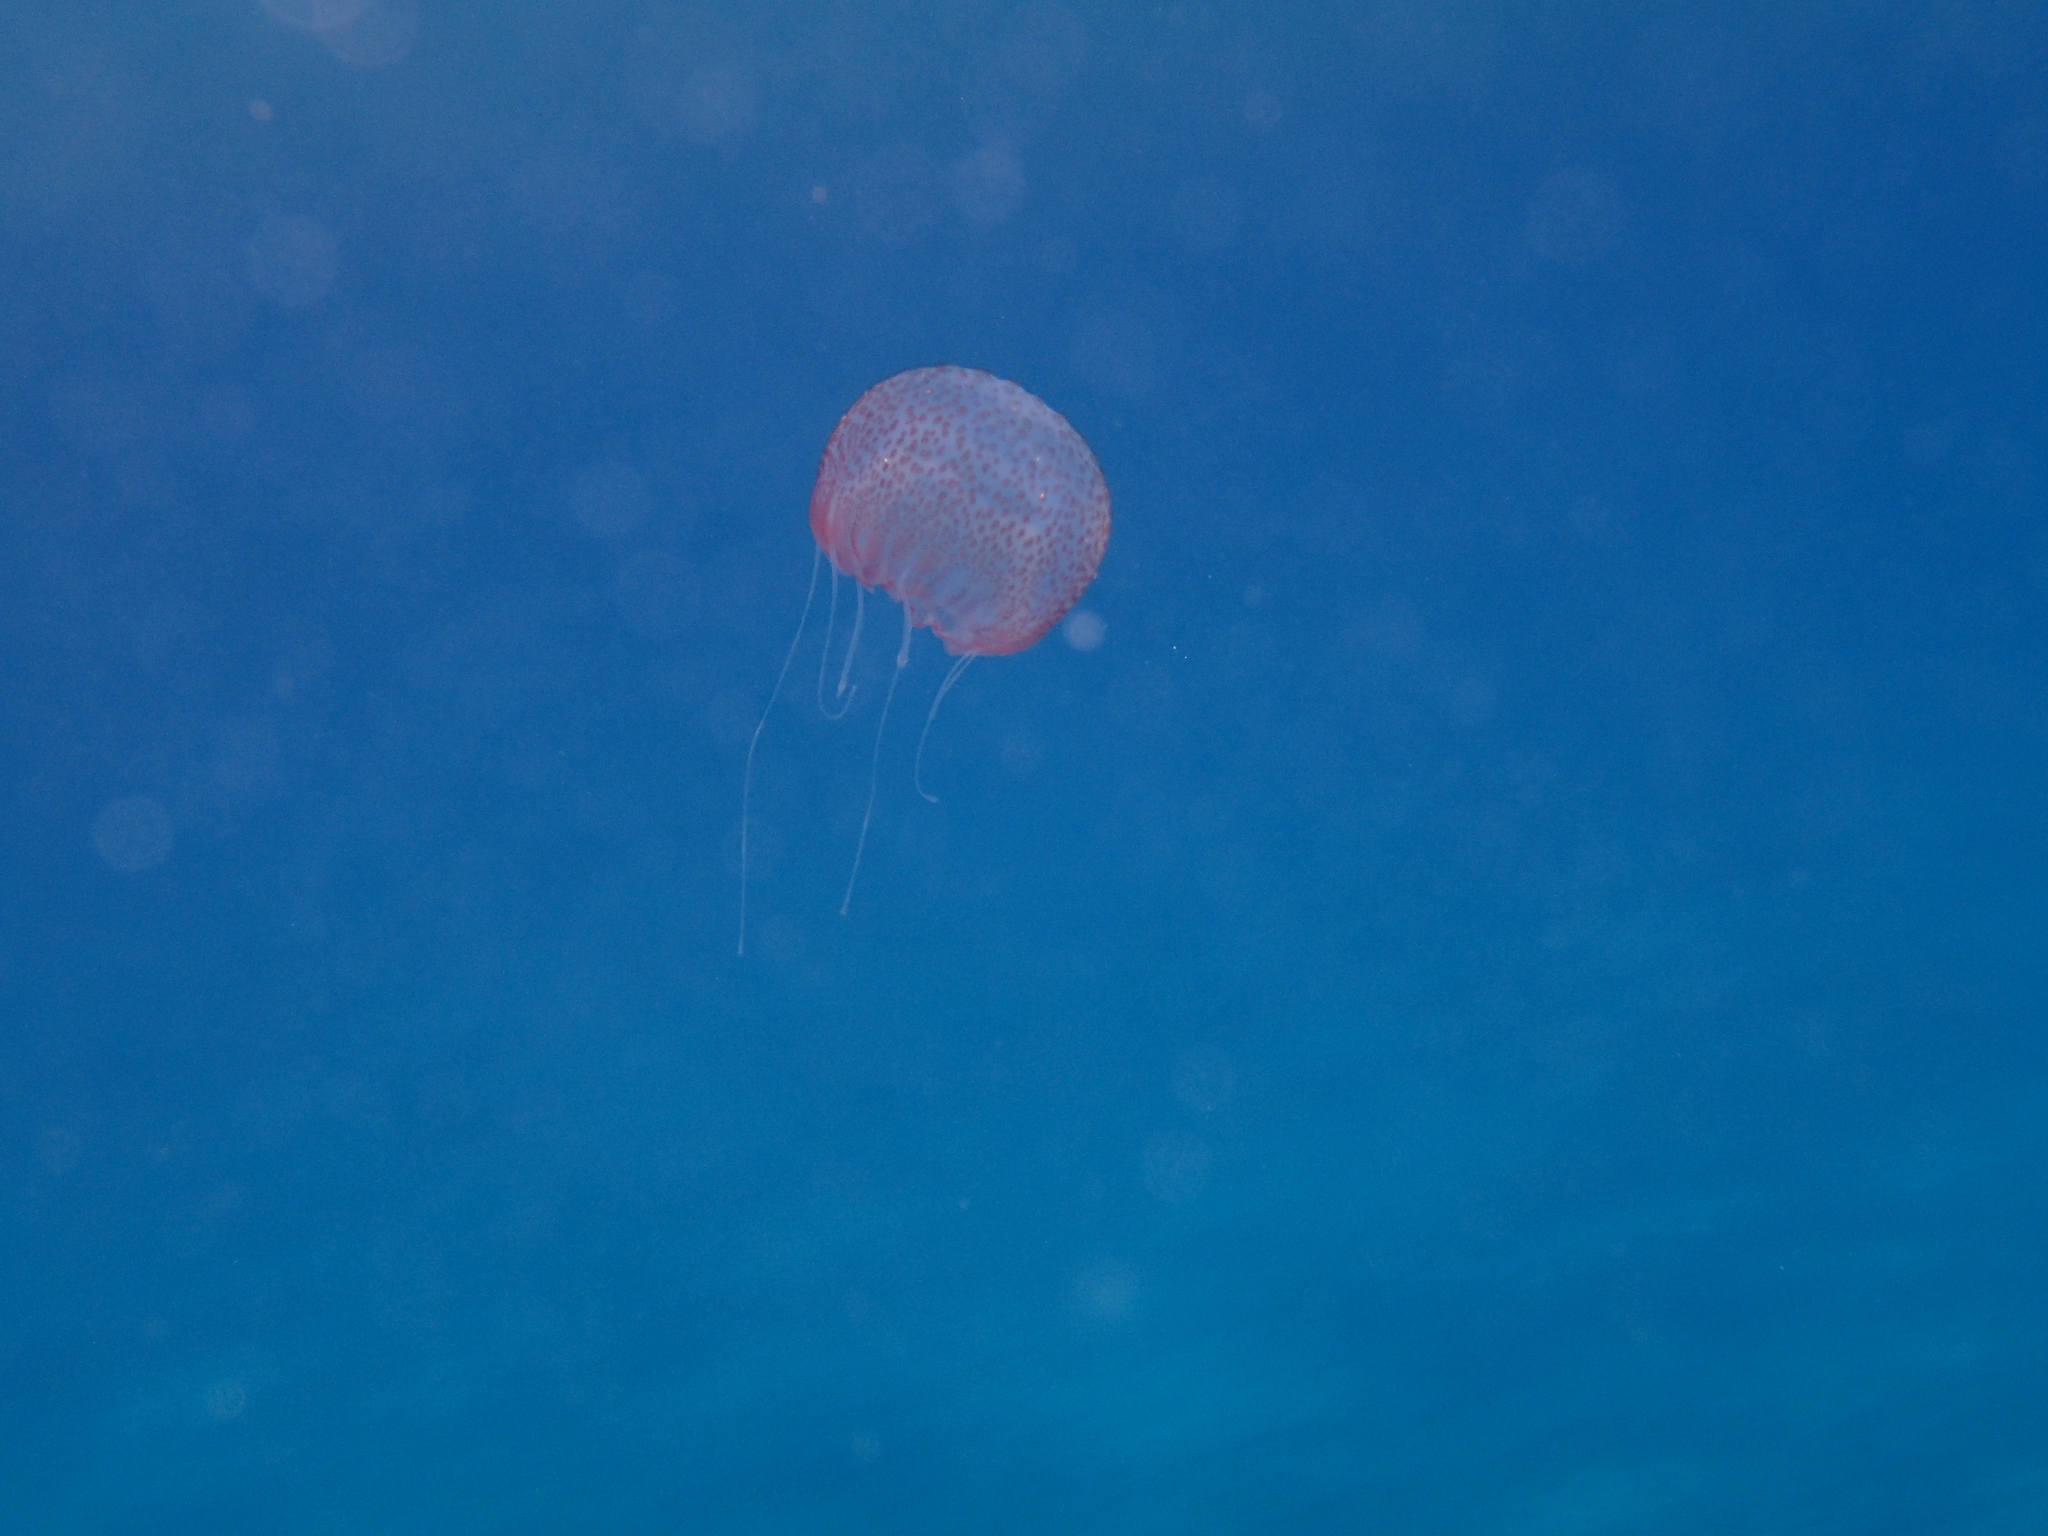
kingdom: Animalia
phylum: Cnidaria
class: Scyphozoa
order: Semaeostomeae
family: Pelagiidae
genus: Pelagia
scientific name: Pelagia noctiluca
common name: Mauve stinger
